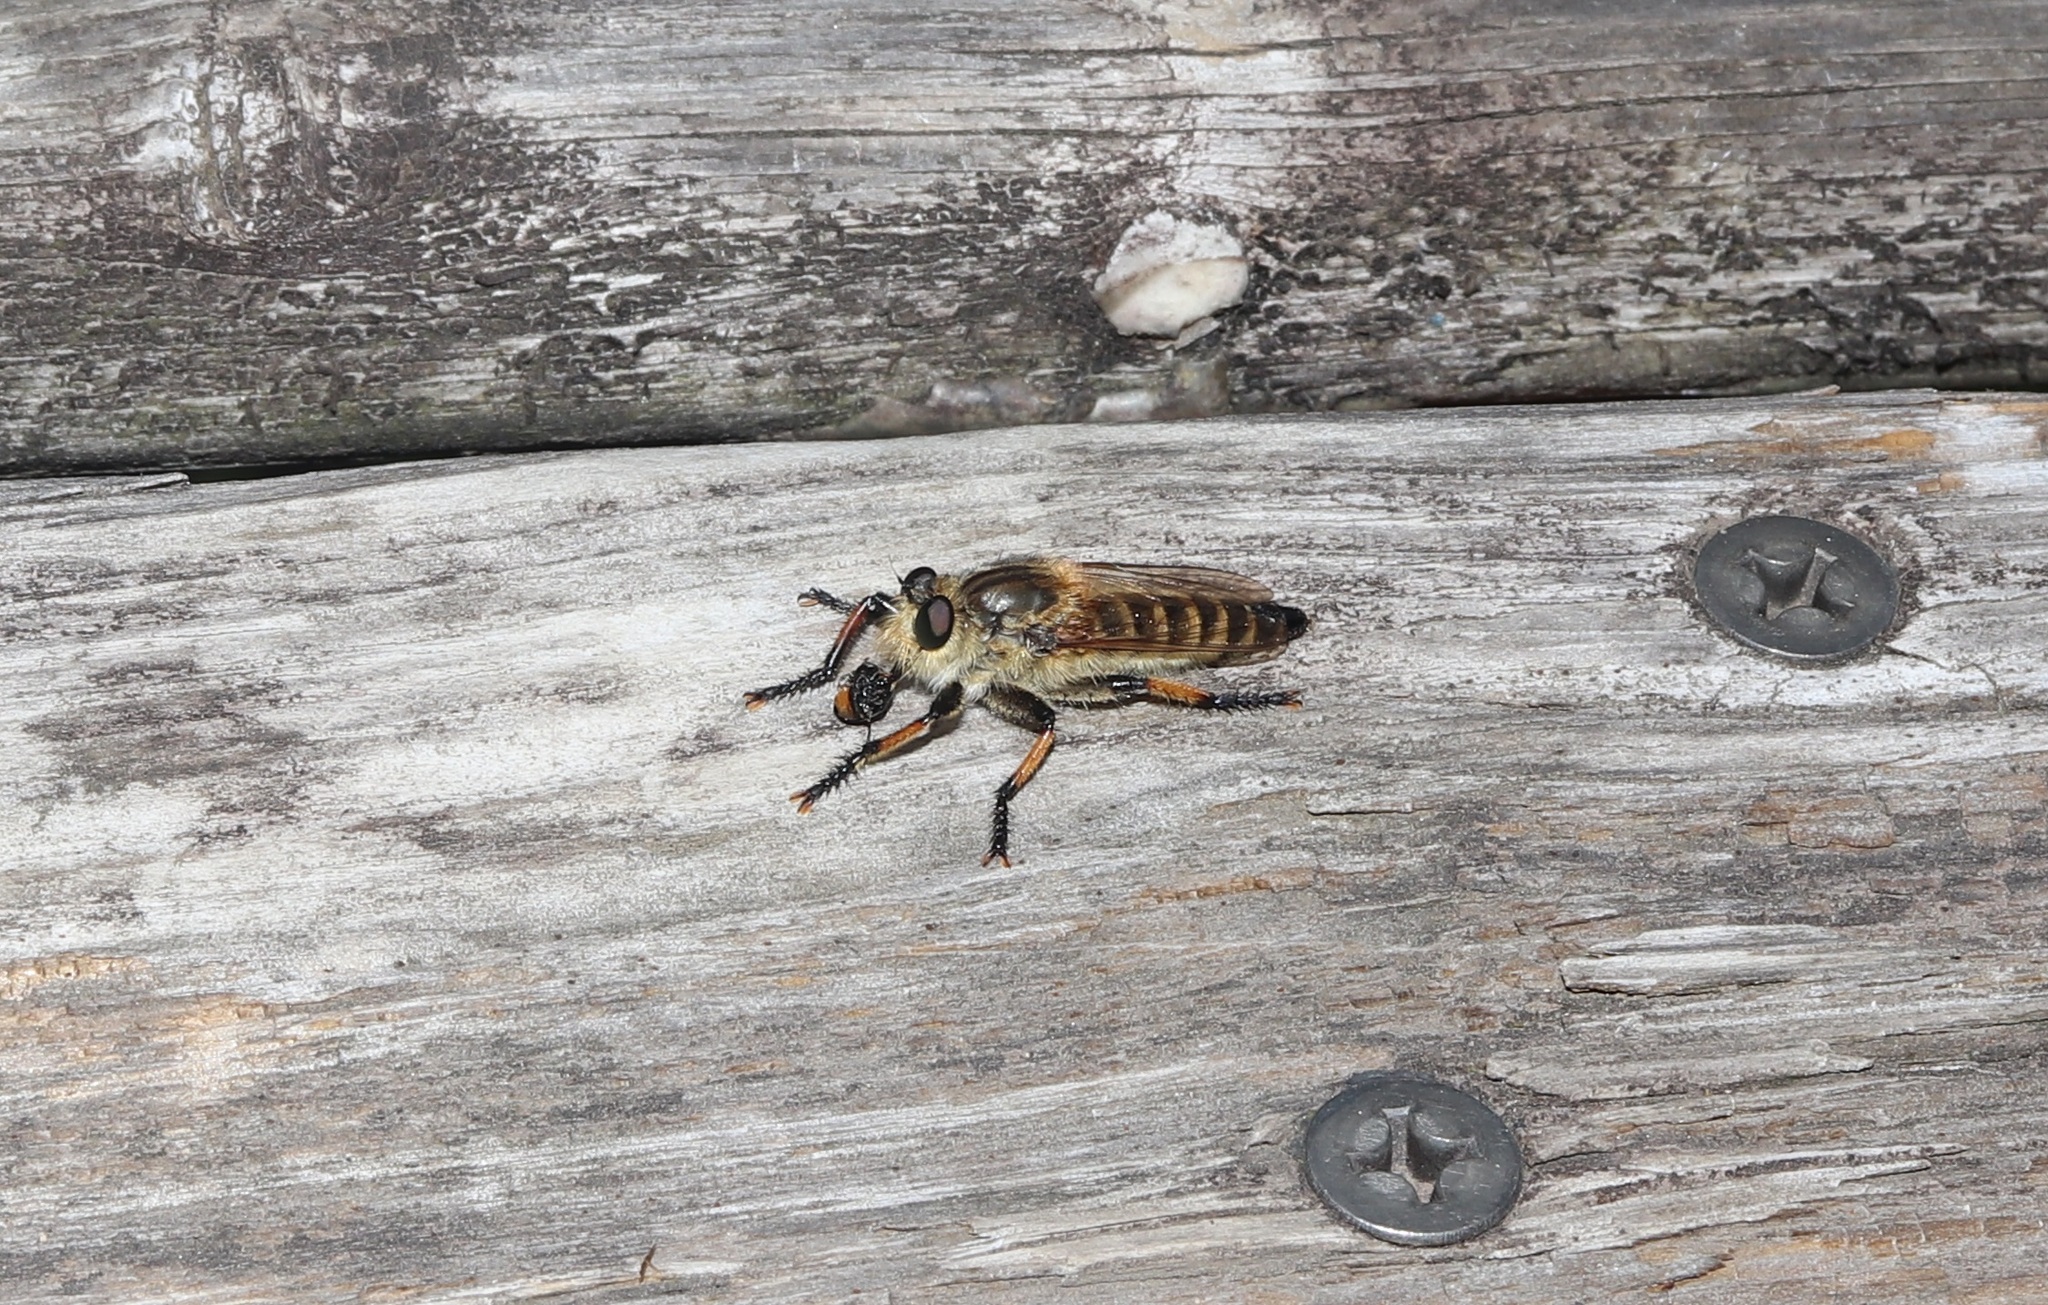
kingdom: Animalia
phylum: Arthropoda
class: Insecta
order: Diptera
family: Asilidae
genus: Promachus
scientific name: Promachus yesonicus
